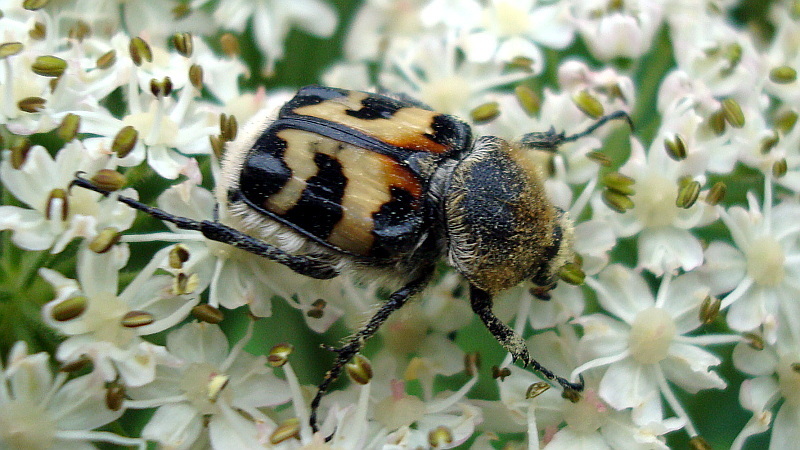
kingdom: Animalia
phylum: Arthropoda
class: Insecta
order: Coleoptera
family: Scarabaeidae
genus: Trichius
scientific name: Trichius fasciatus
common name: Bee beetle
